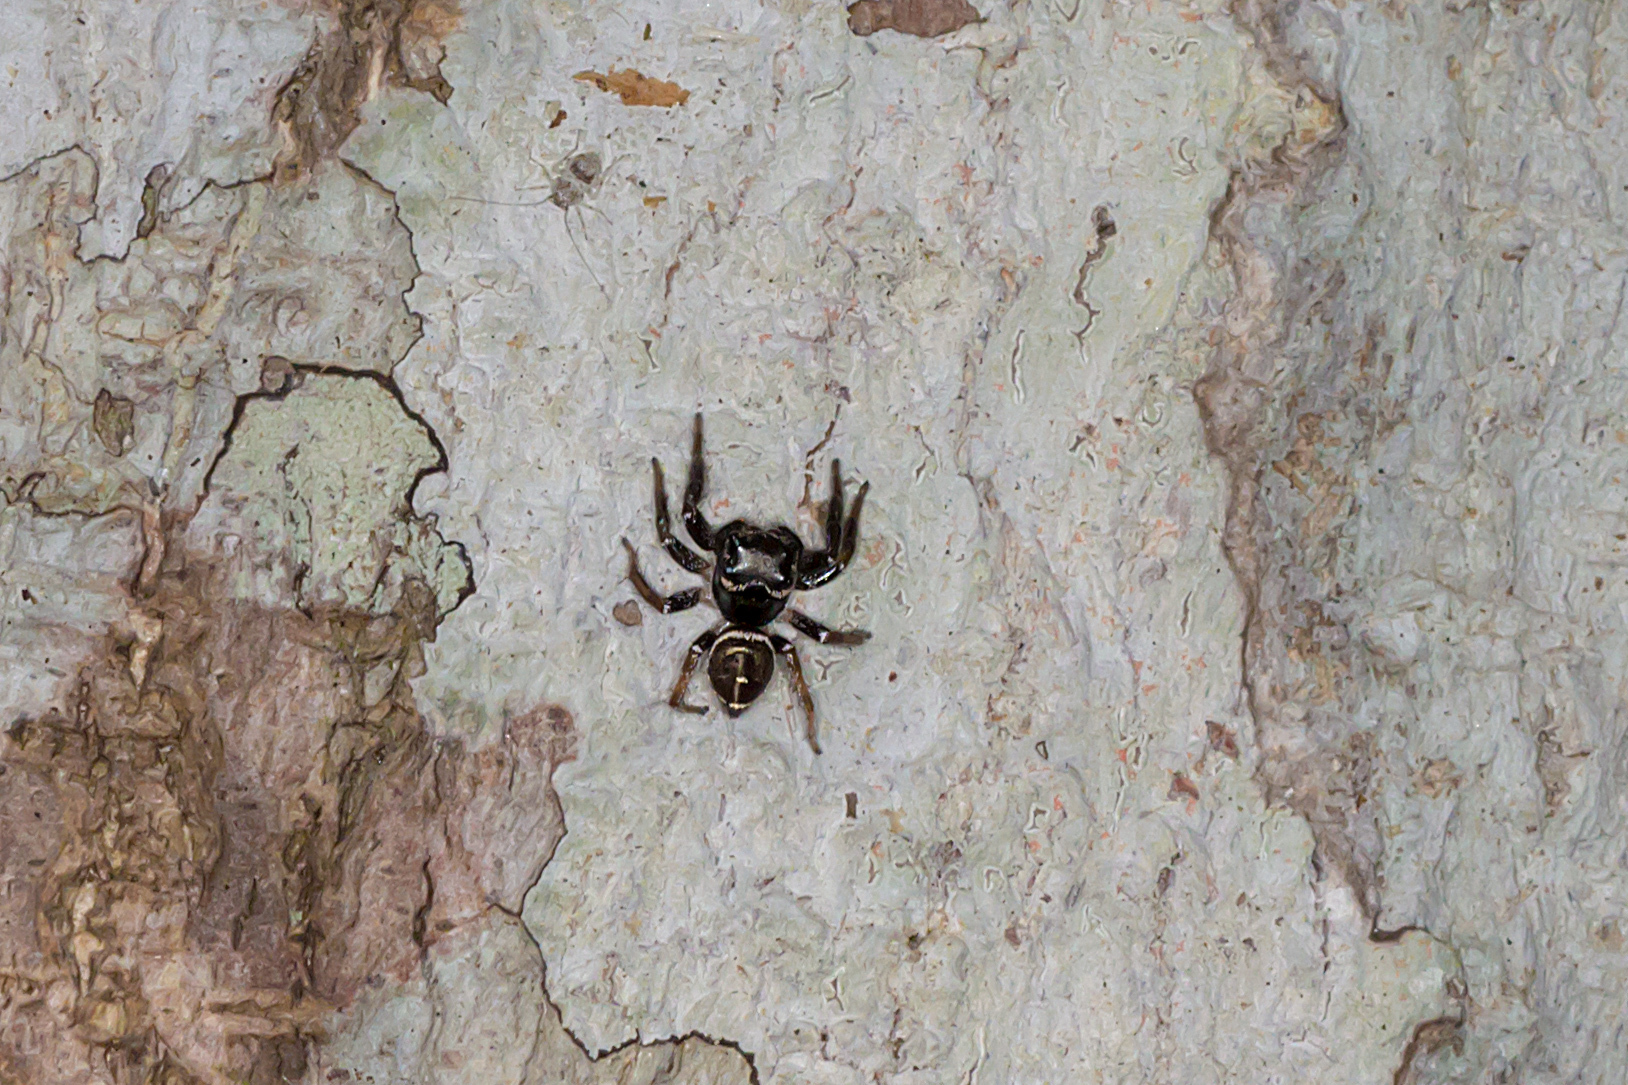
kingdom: Animalia
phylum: Arthropoda
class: Arachnida
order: Araneae
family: Salticidae
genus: Zenodorus
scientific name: Zenodorus orbiculatus
